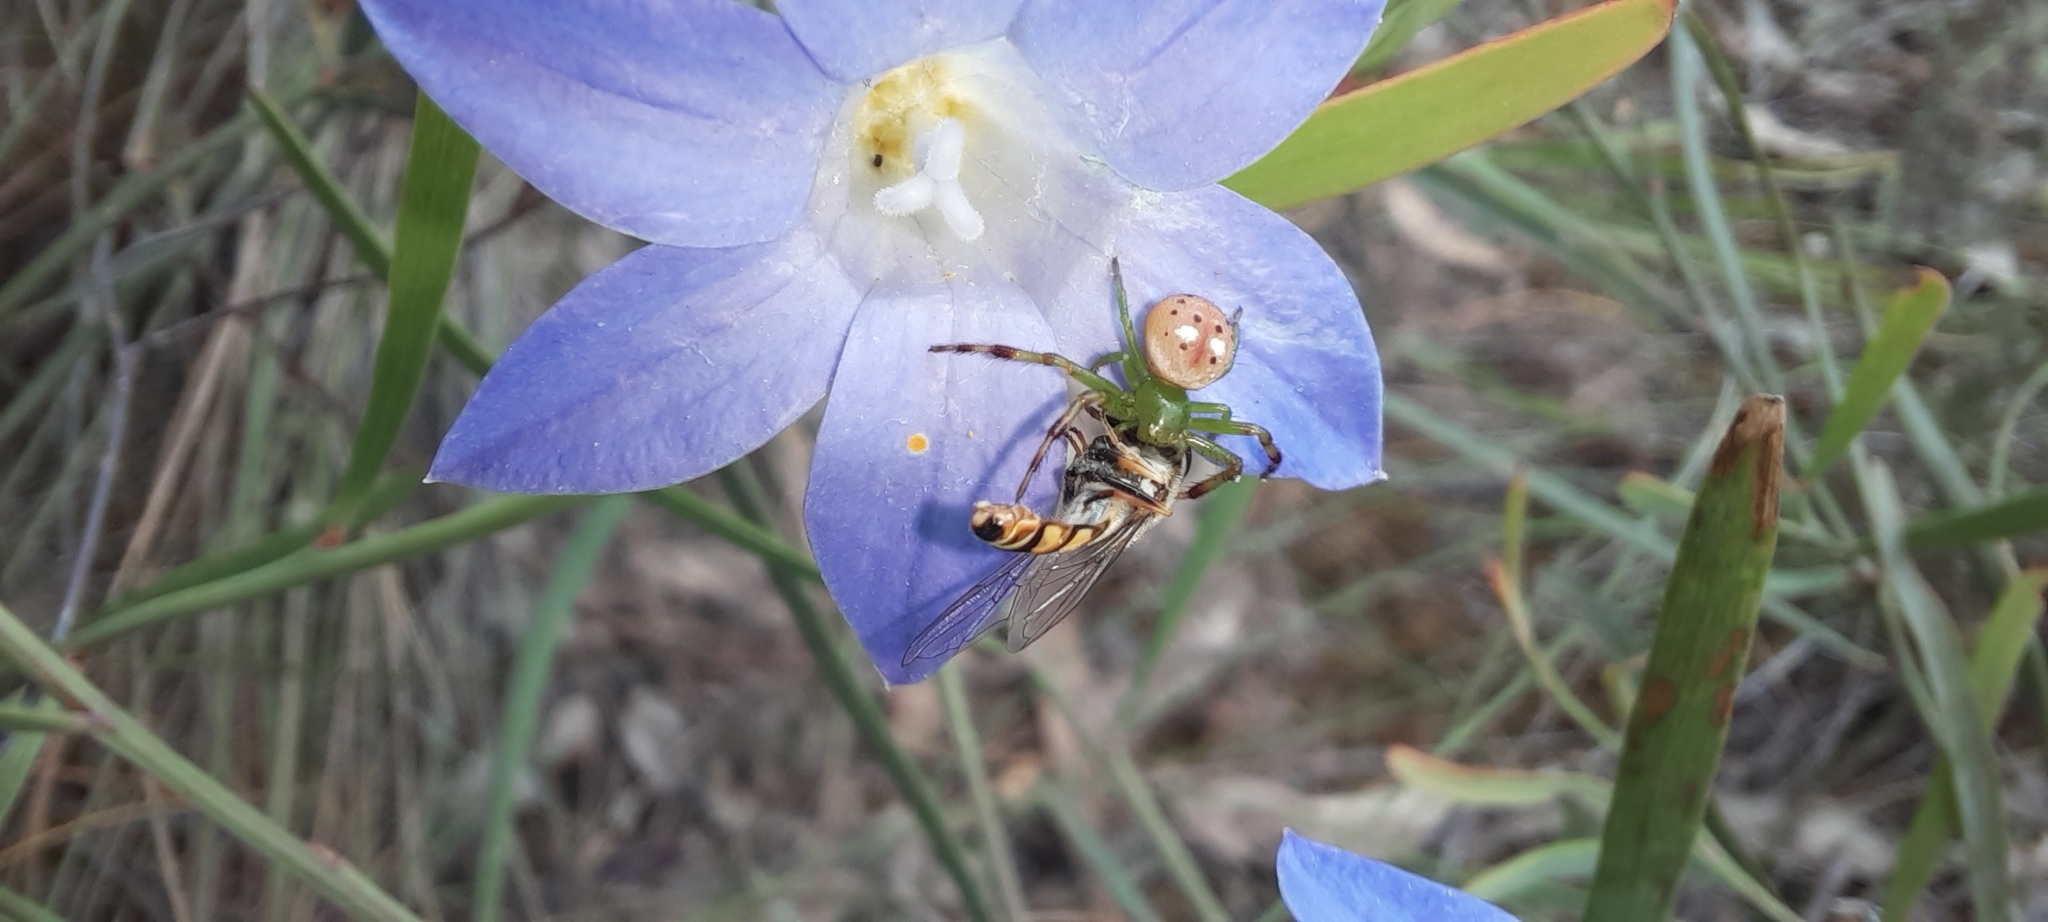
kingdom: Animalia
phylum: Arthropoda
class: Insecta
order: Diptera
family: Syrphidae
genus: Simosyrphus
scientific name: Simosyrphus grandicornis
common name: Hoverfly
